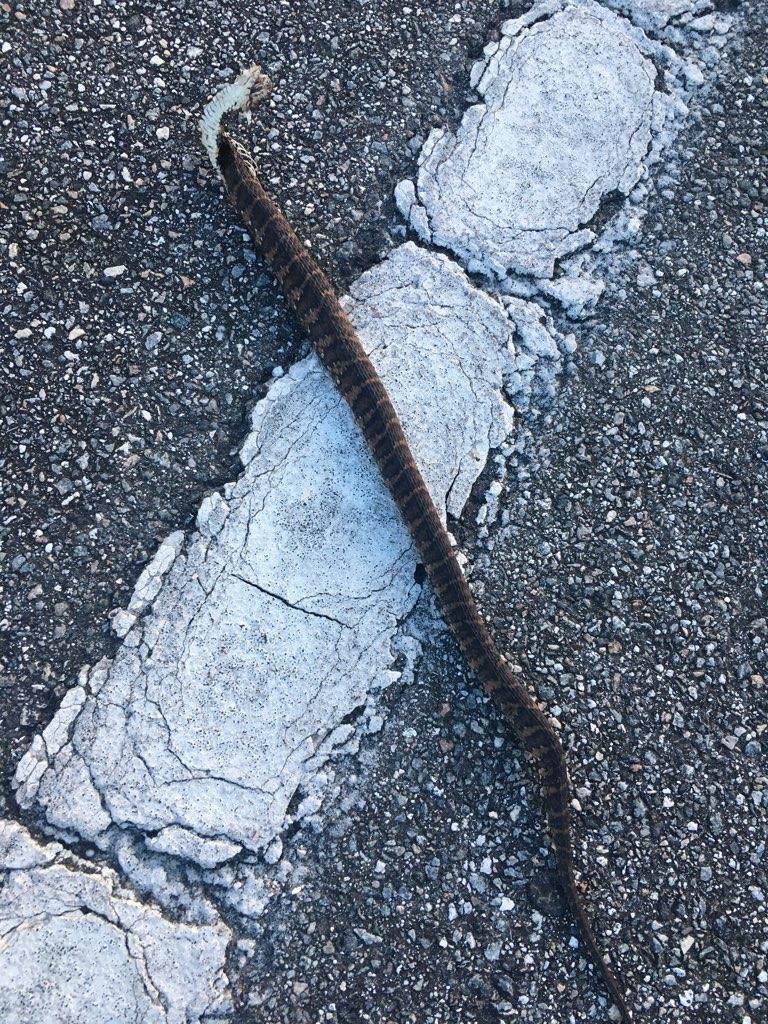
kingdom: Animalia
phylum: Chordata
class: Squamata
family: Colubridae
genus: Nerodia
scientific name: Nerodia fasciata
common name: Southern water snake
